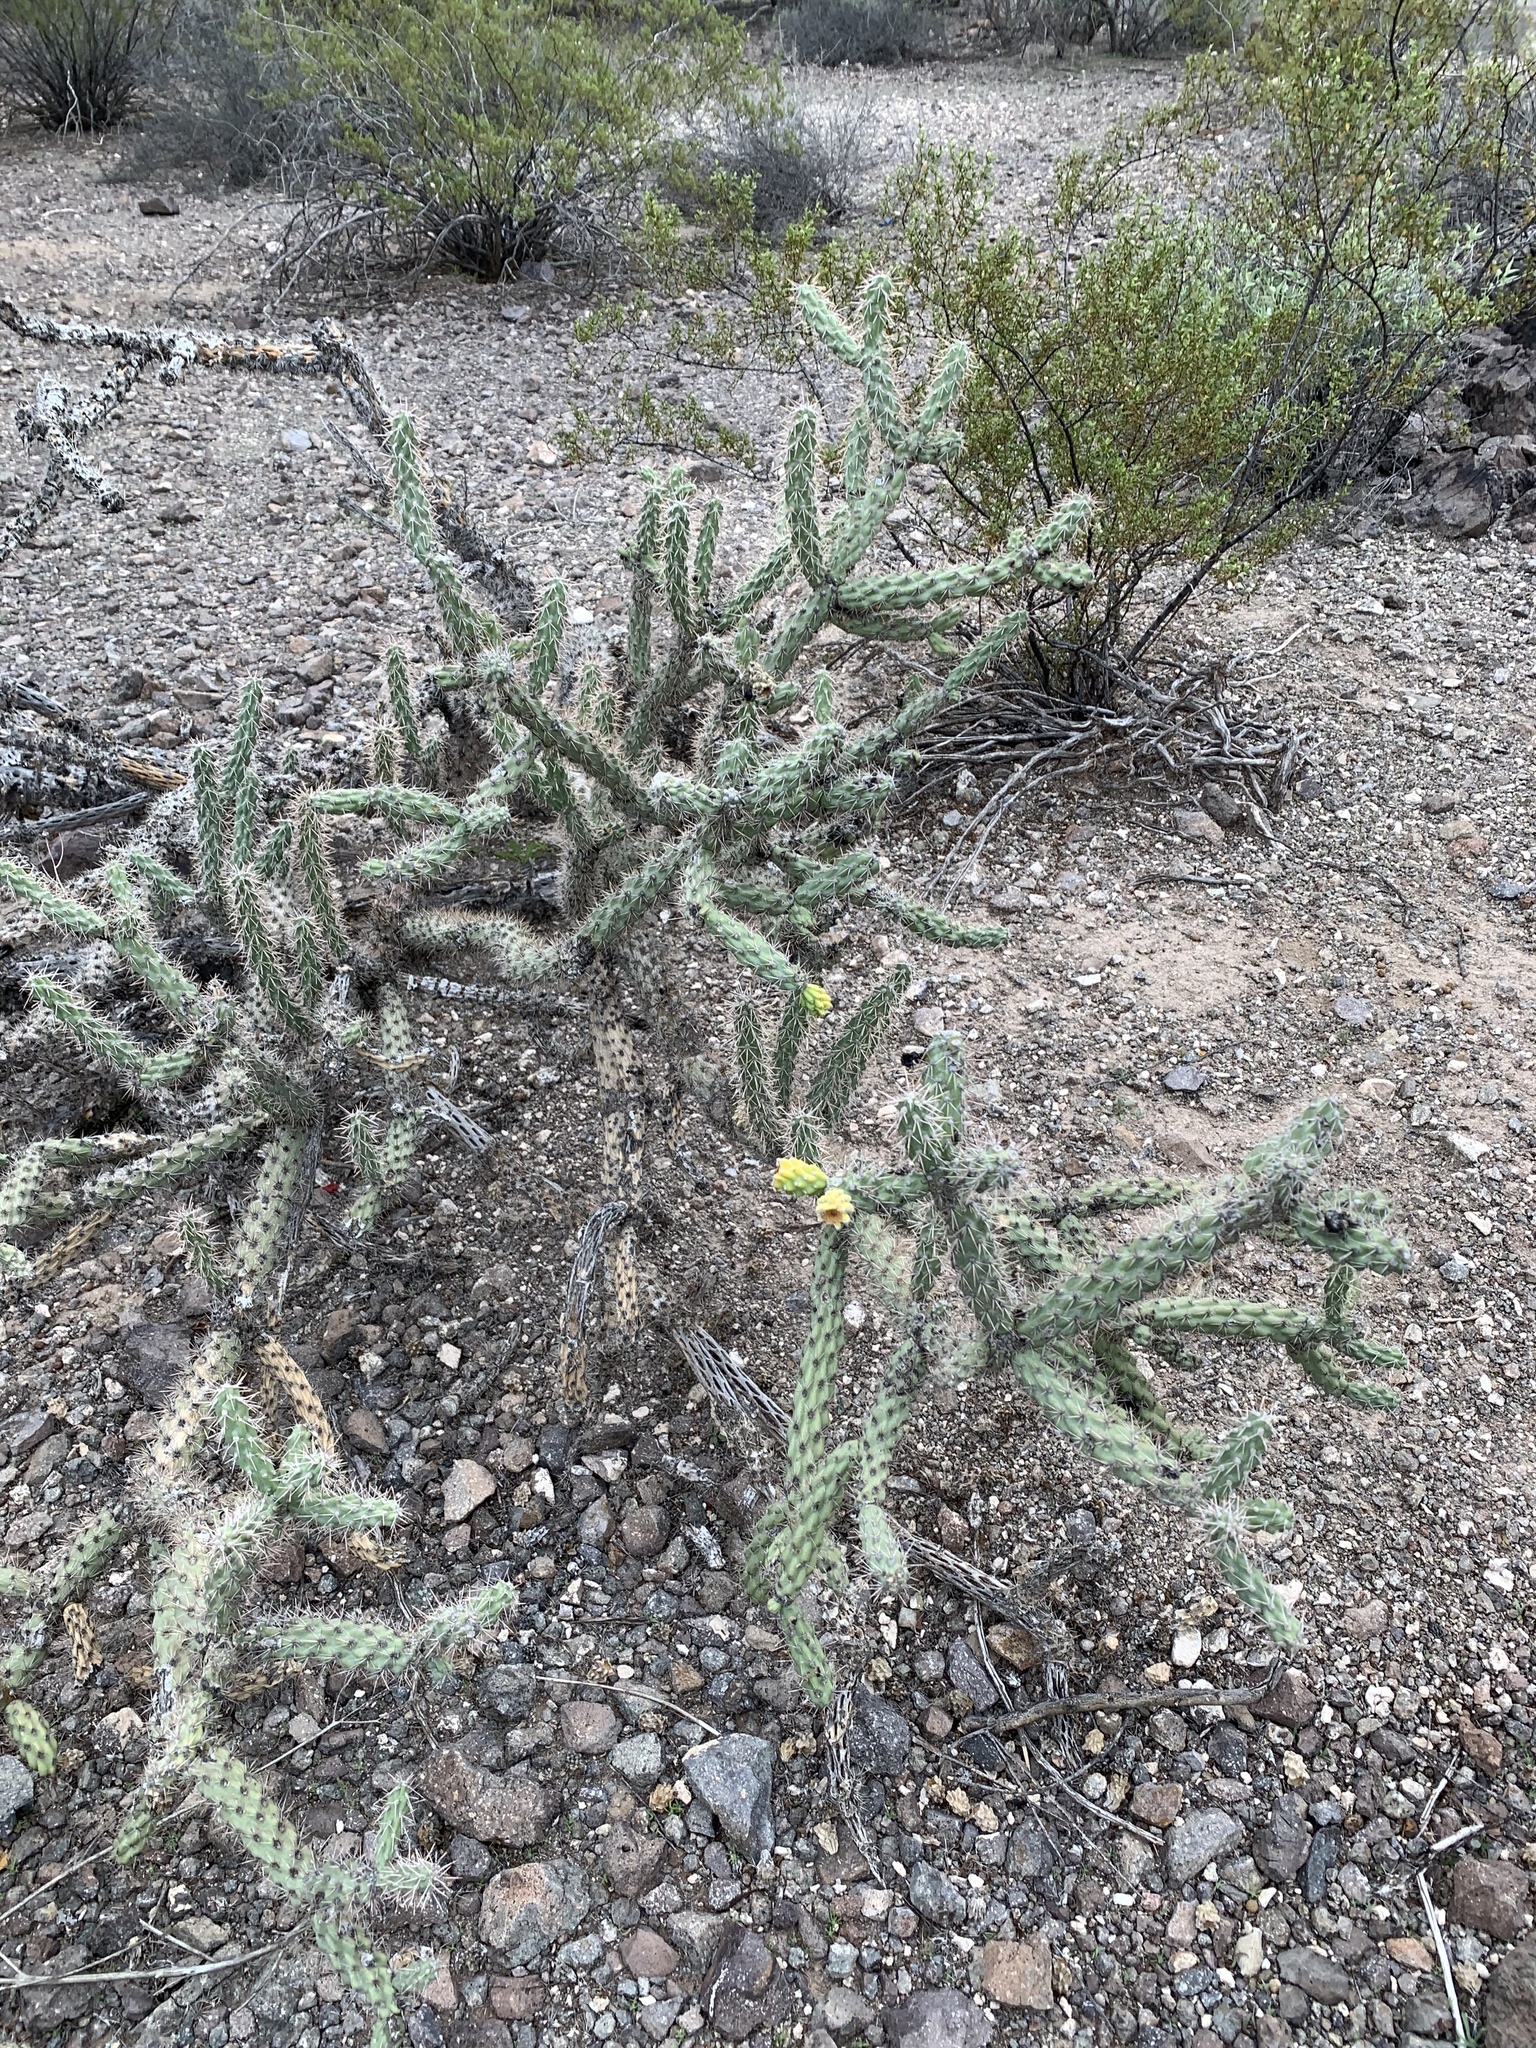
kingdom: Plantae
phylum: Tracheophyta
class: Magnoliopsida
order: Caryophyllales
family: Cactaceae
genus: Cylindropuntia
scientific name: Cylindropuntia imbricata
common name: Candelabrum cactus
